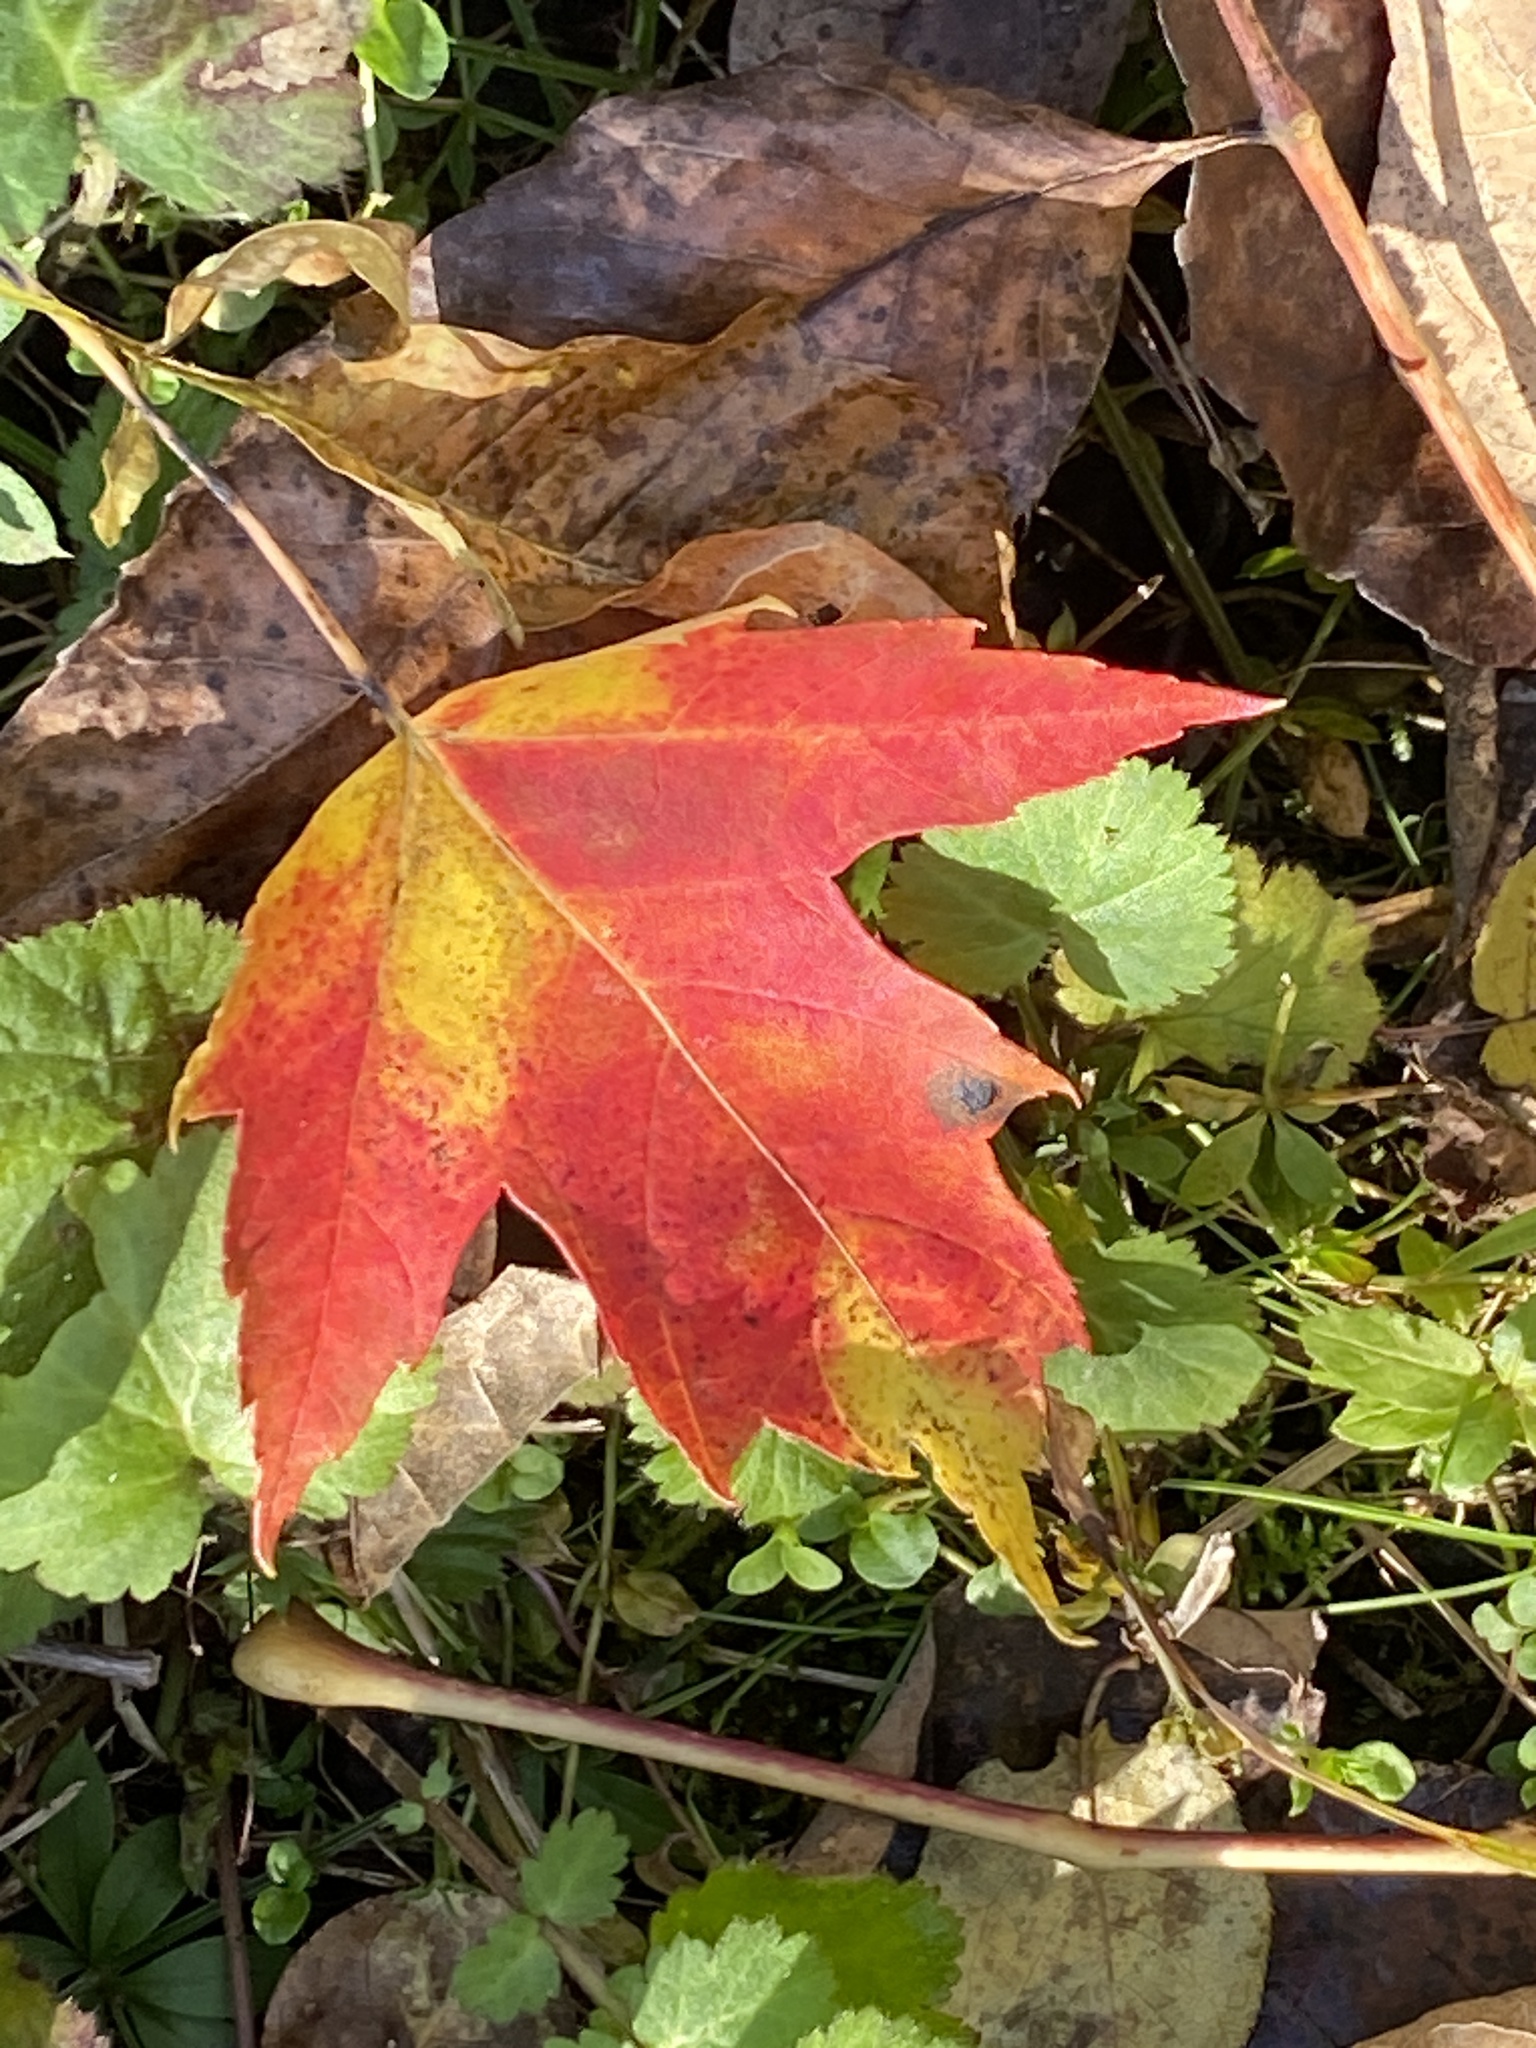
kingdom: Plantae
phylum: Tracheophyta
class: Magnoliopsida
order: Sapindales
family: Sapindaceae
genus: Acer
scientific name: Acer rubrum
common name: Red maple
